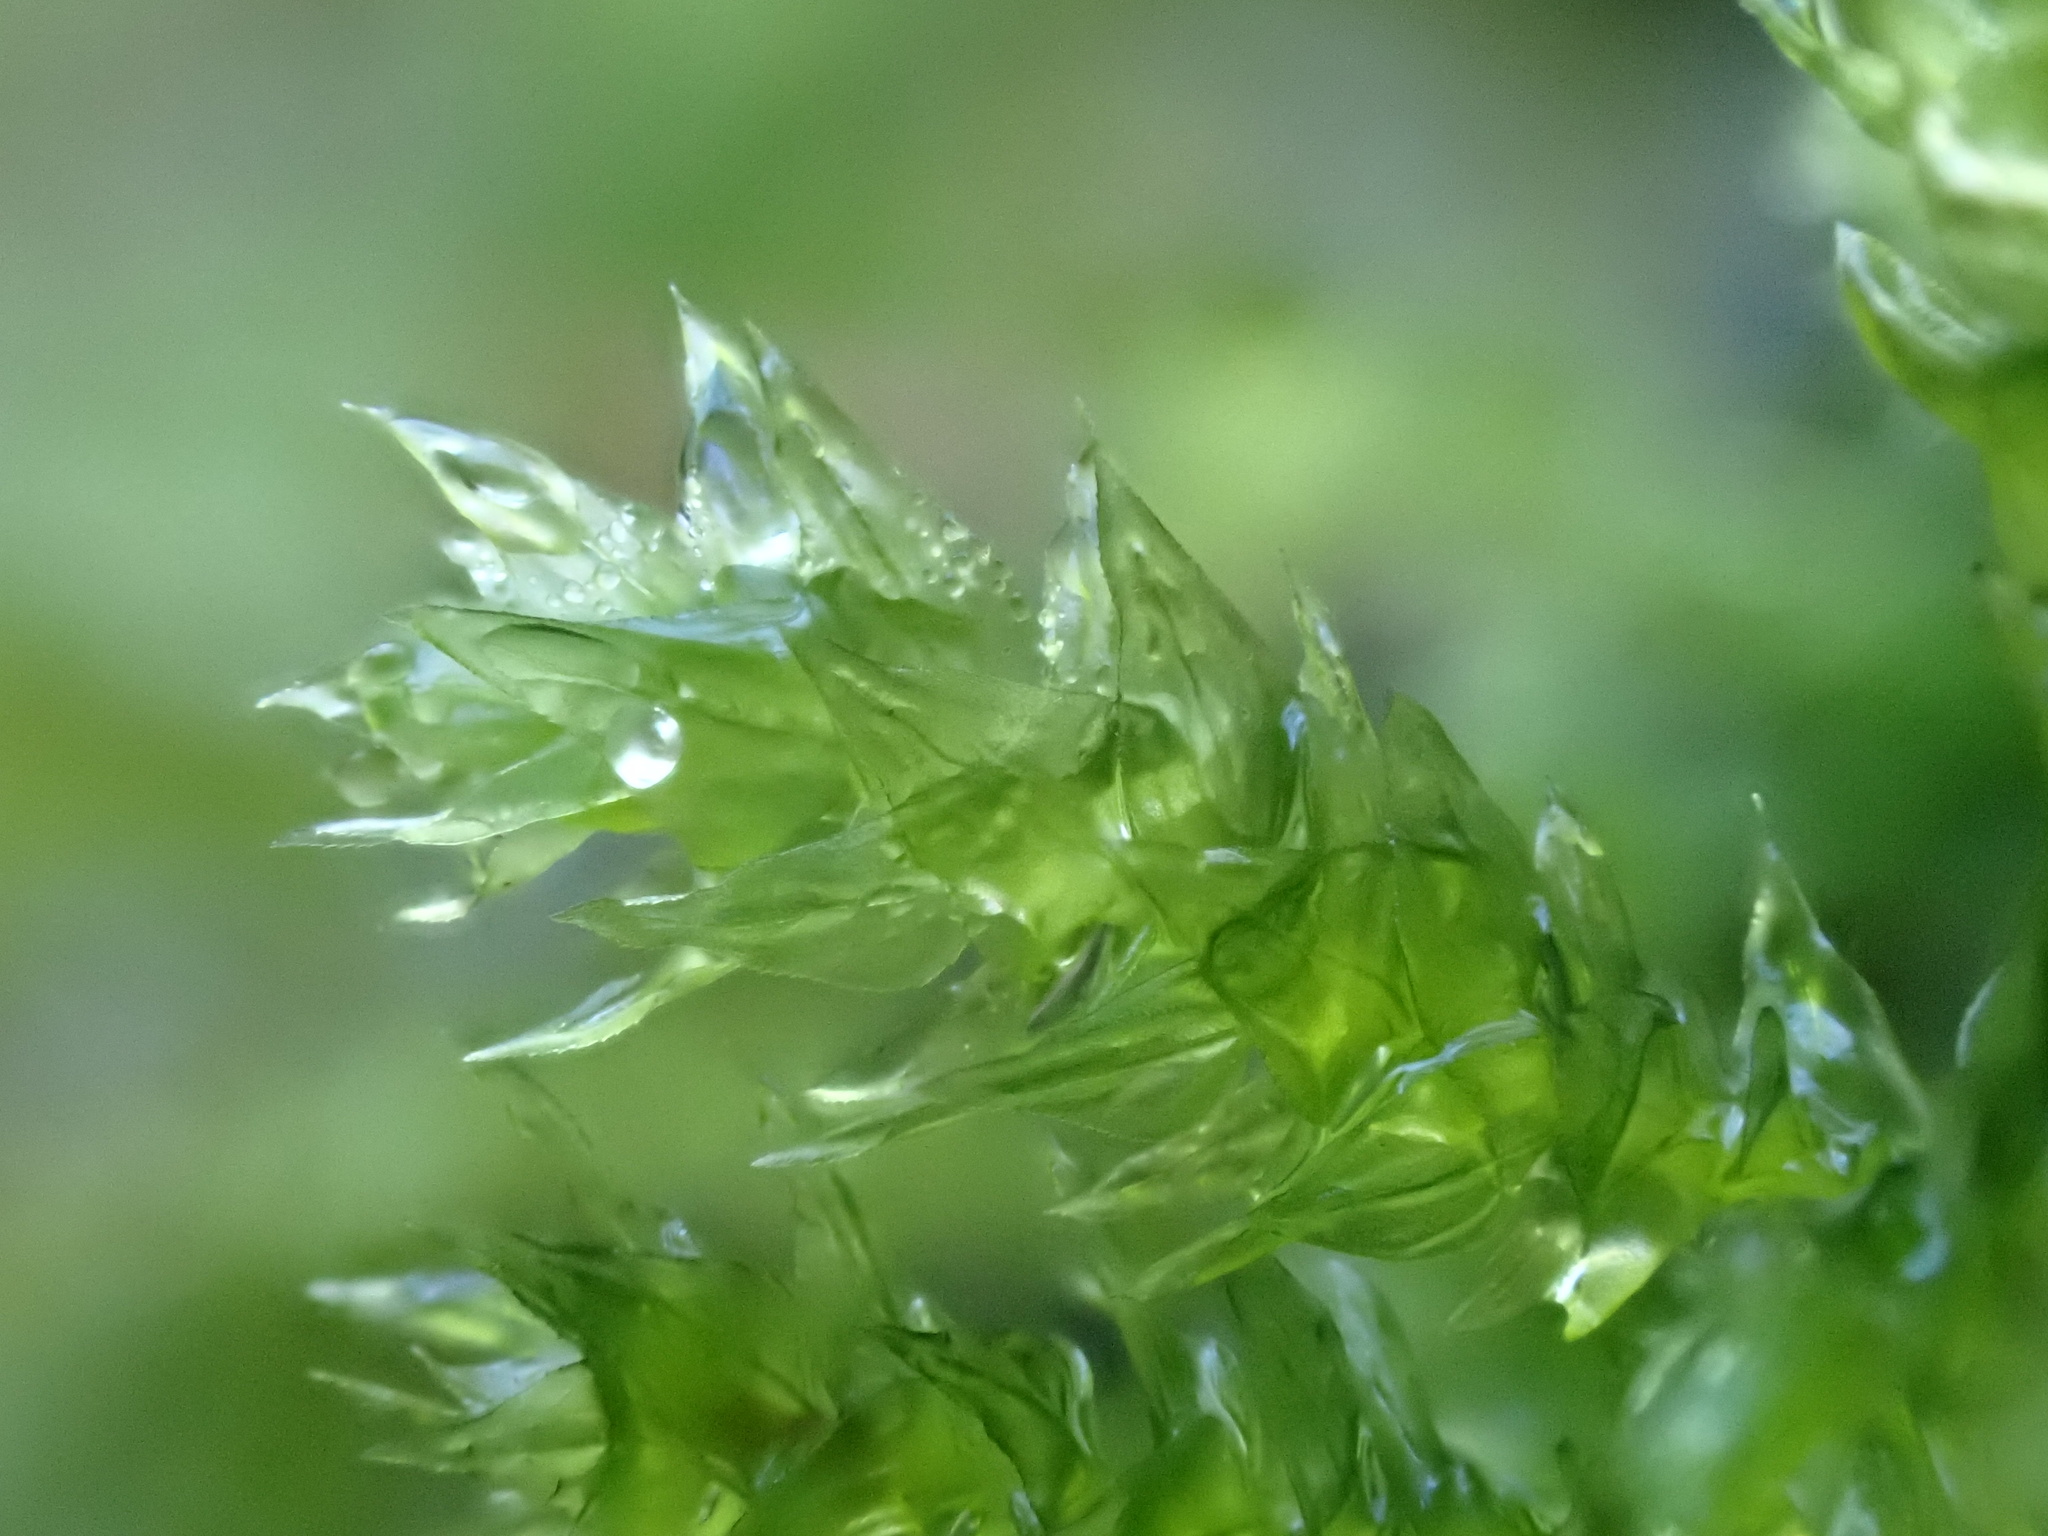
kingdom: Plantae
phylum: Bryophyta
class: Bryopsida
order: Hypnales
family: Brachytheciaceae
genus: Eurhynchium
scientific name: Eurhynchium striatum
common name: Common striated feather-moss
